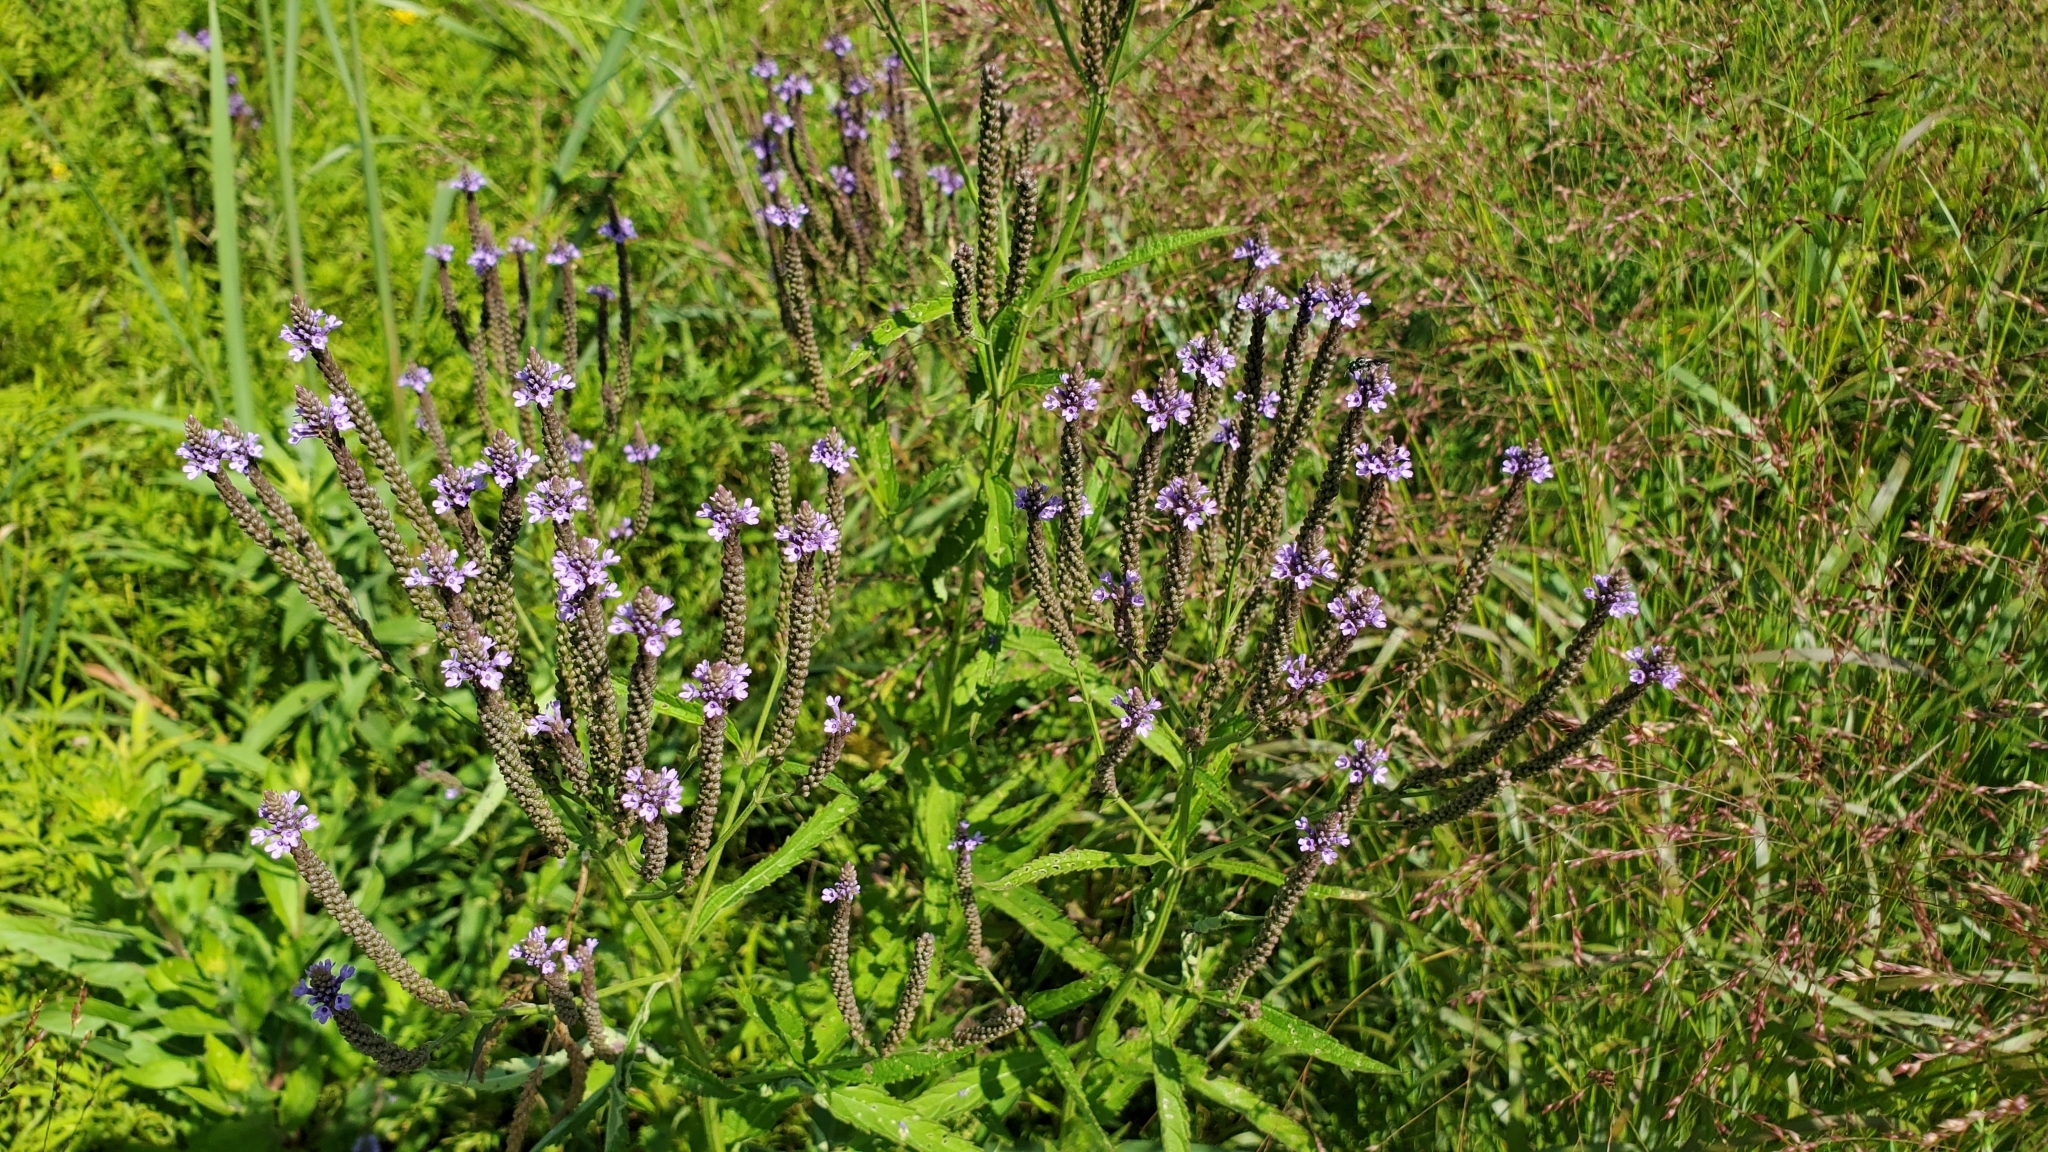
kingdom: Plantae
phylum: Tracheophyta
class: Magnoliopsida
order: Lamiales
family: Verbenaceae
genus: Verbena
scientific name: Verbena hastata
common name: American blue vervain
